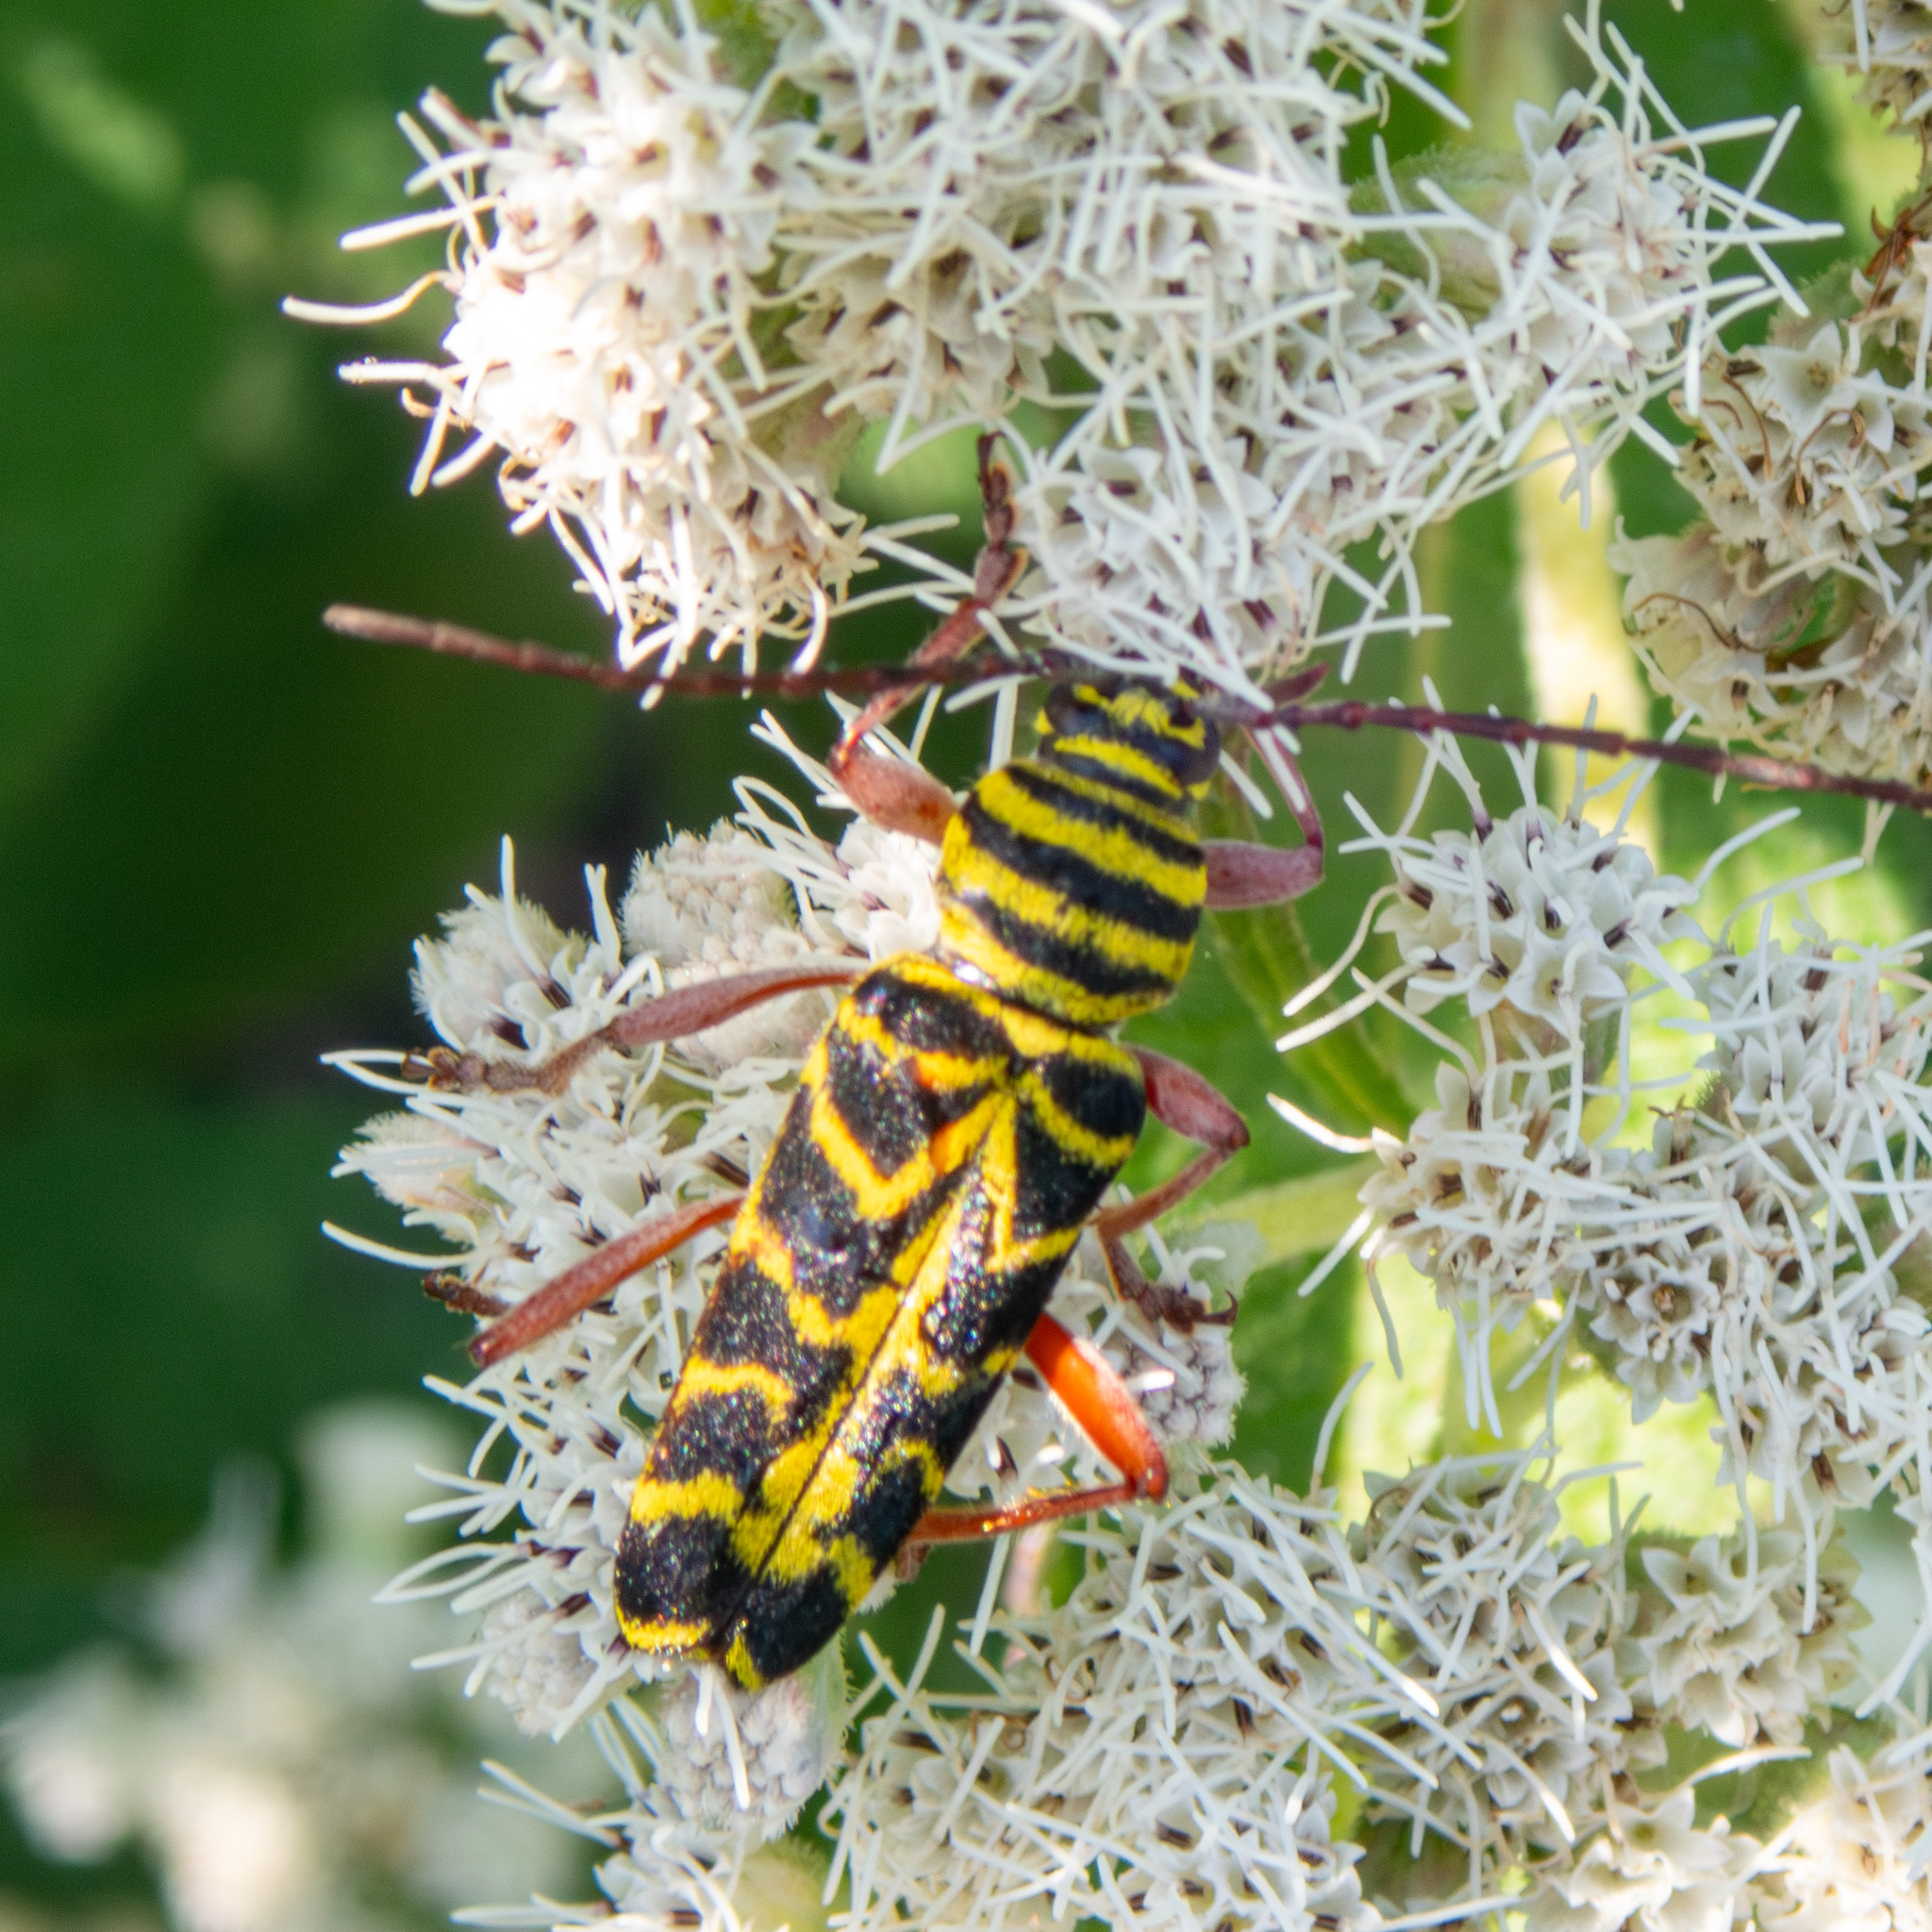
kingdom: Animalia
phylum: Arthropoda
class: Insecta
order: Coleoptera
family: Cerambycidae
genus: Megacyllene
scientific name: Megacyllene robiniae
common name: Locust borer
